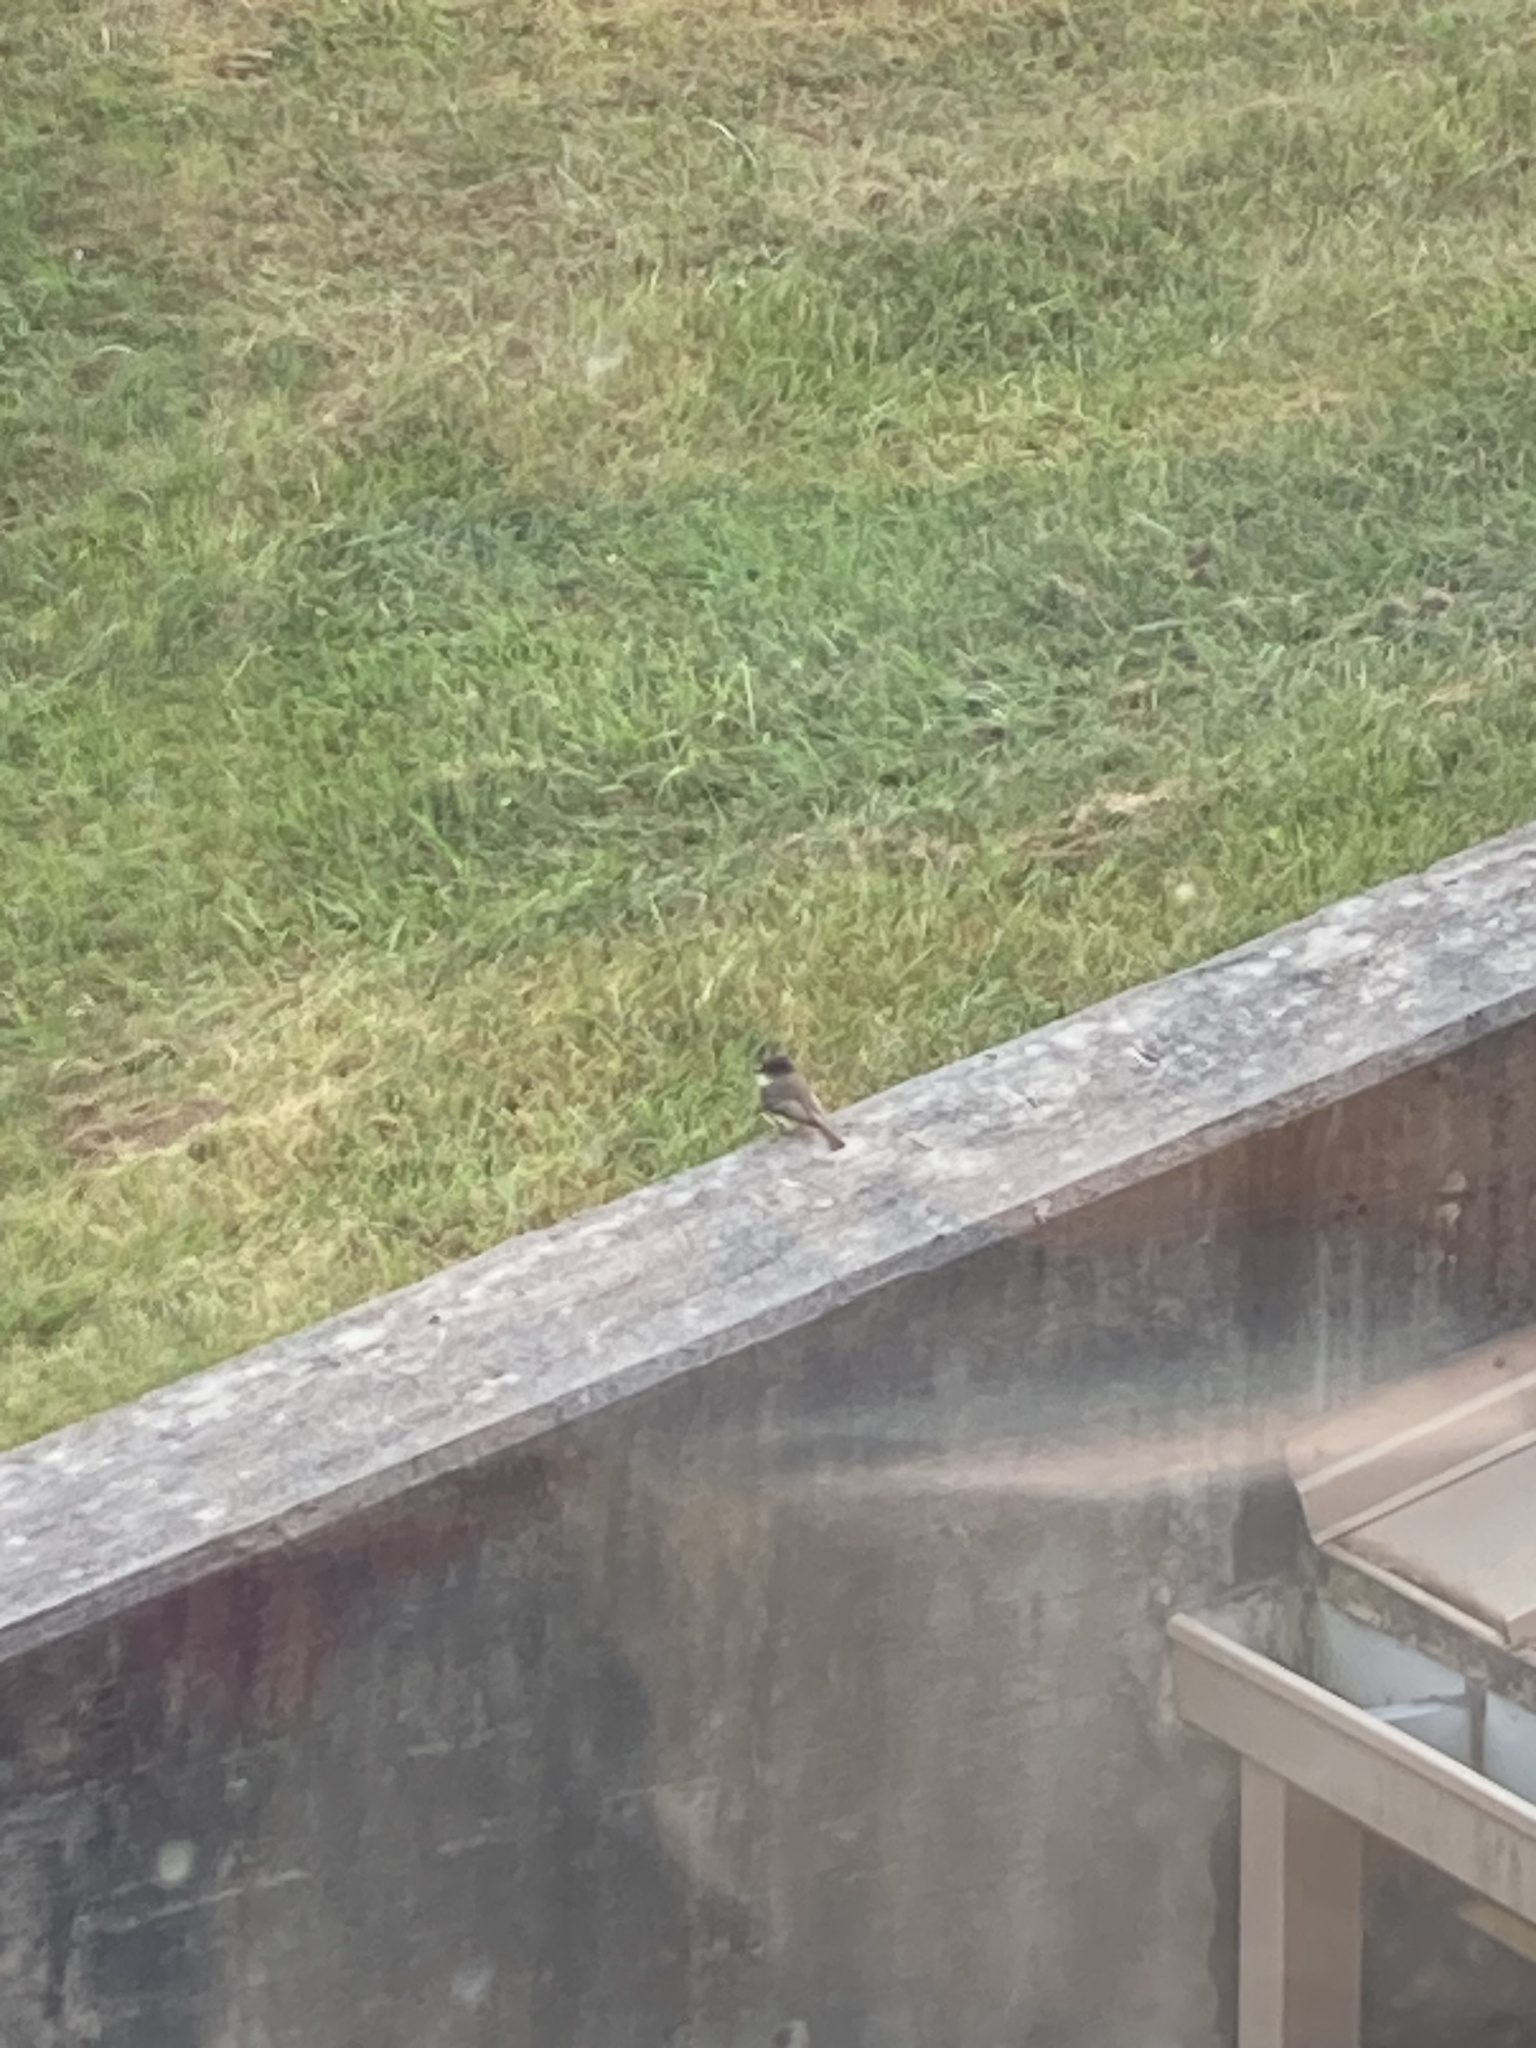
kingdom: Animalia
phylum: Chordata
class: Aves
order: Passeriformes
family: Tyrannidae
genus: Sayornis
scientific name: Sayornis phoebe
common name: Eastern phoebe
